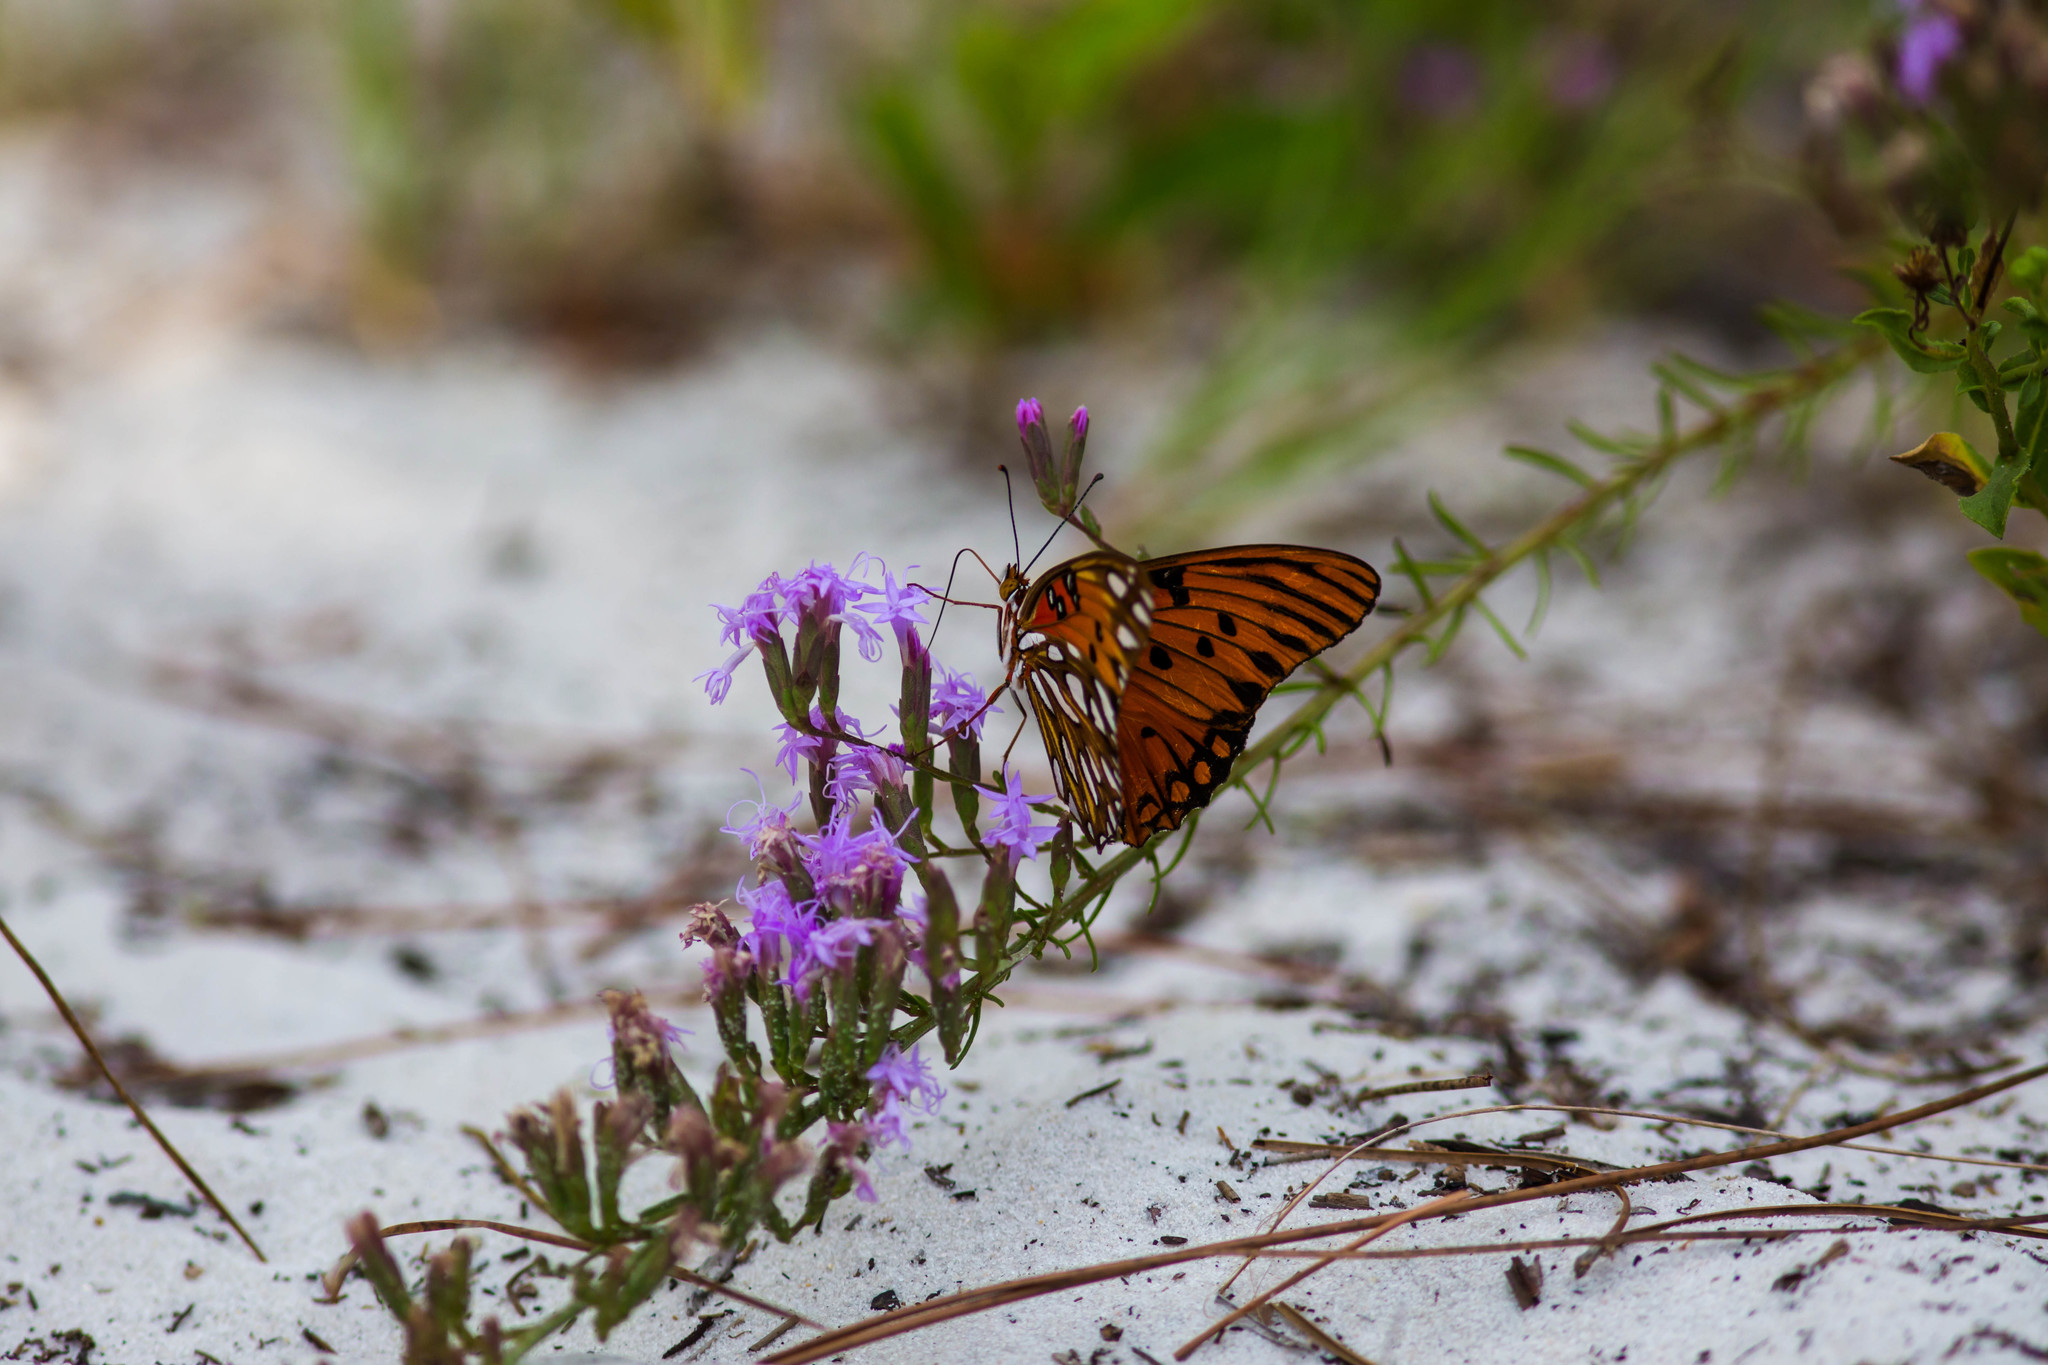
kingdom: Animalia
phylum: Arthropoda
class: Insecta
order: Lepidoptera
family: Nymphalidae
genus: Dione
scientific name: Dione vanillae
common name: Gulf fritillary
